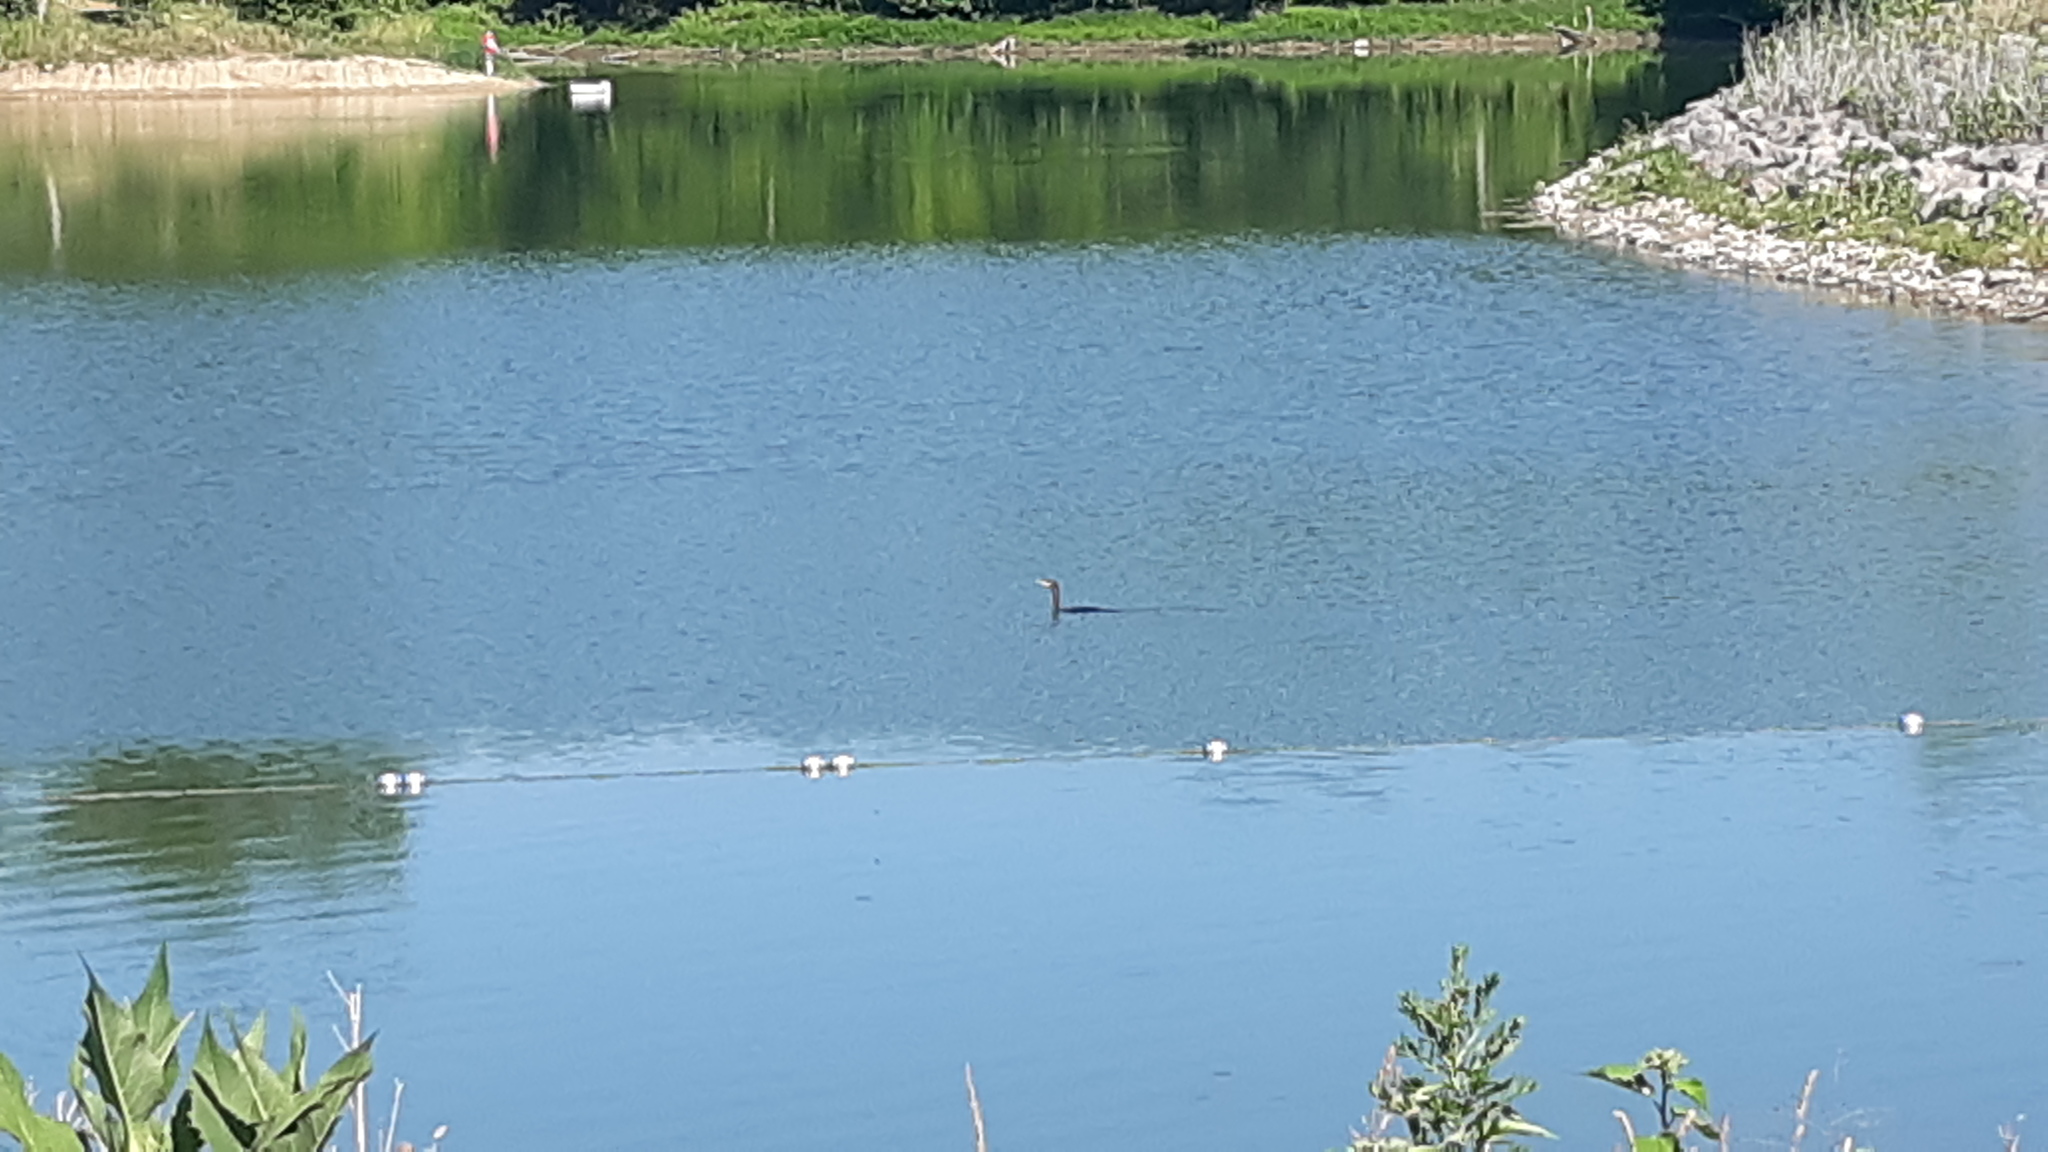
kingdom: Animalia
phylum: Chordata
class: Aves
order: Suliformes
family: Phalacrocoracidae
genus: Phalacrocorax
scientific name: Phalacrocorax auritus
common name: Double-crested cormorant
